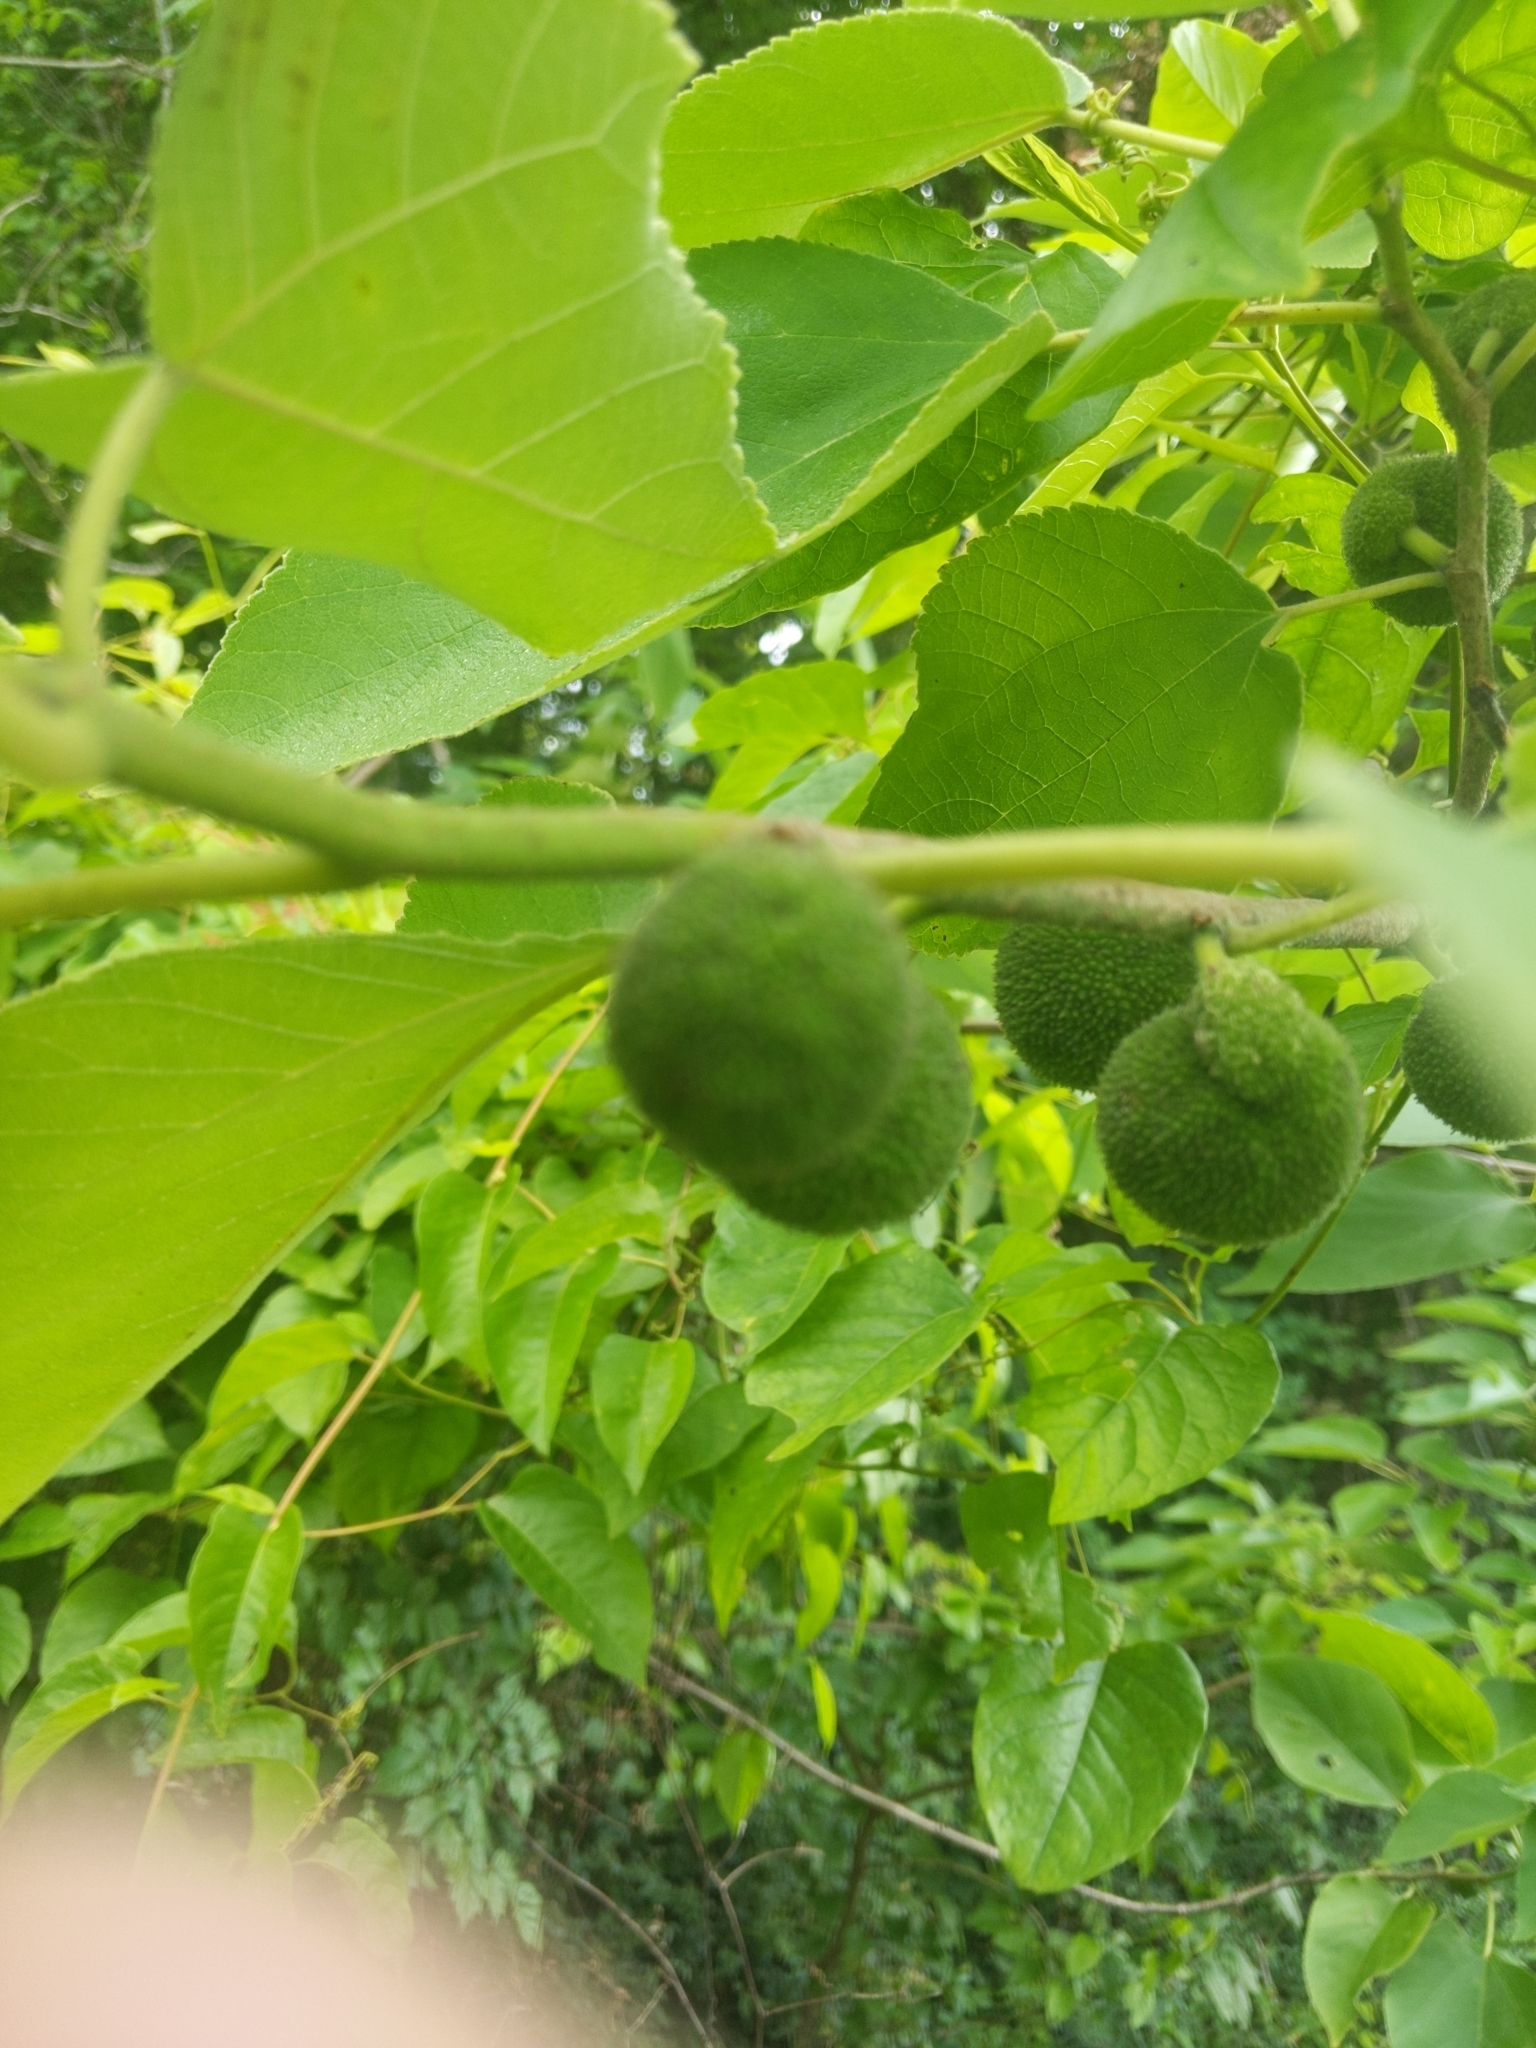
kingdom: Plantae
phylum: Tracheophyta
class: Magnoliopsida
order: Rosales
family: Moraceae
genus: Broussonetia
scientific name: Broussonetia papyrifera
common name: Paper mulberry
